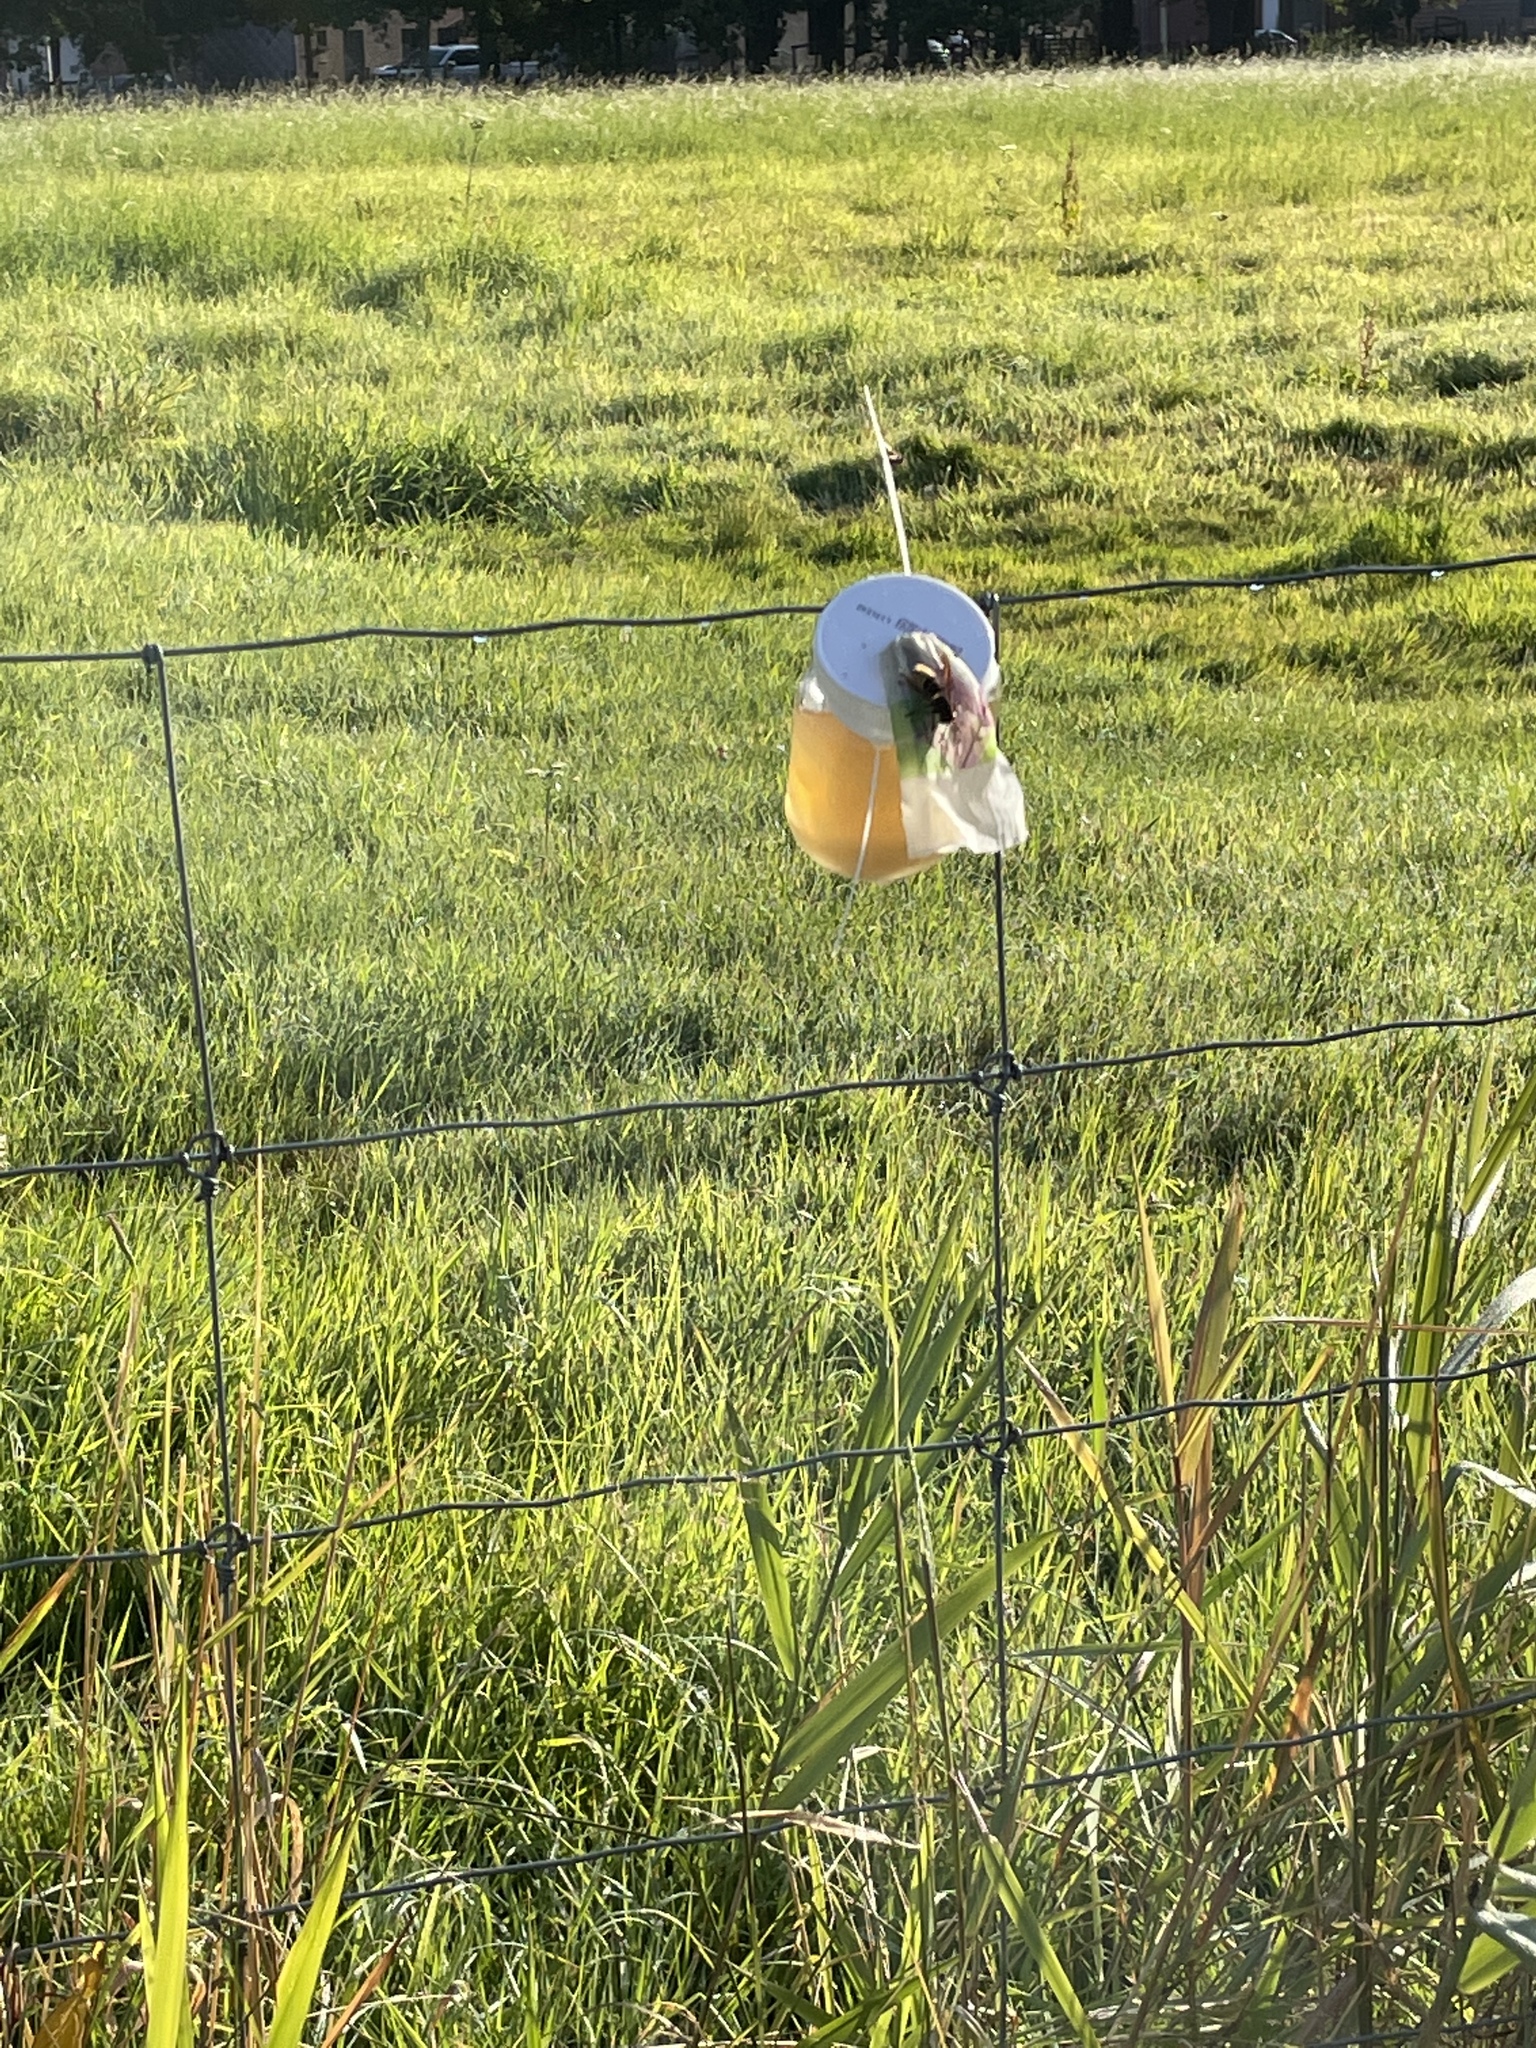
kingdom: Animalia
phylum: Arthropoda
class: Insecta
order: Hymenoptera
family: Vespidae
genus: Vespa
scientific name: Vespa crabro
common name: Hornet
